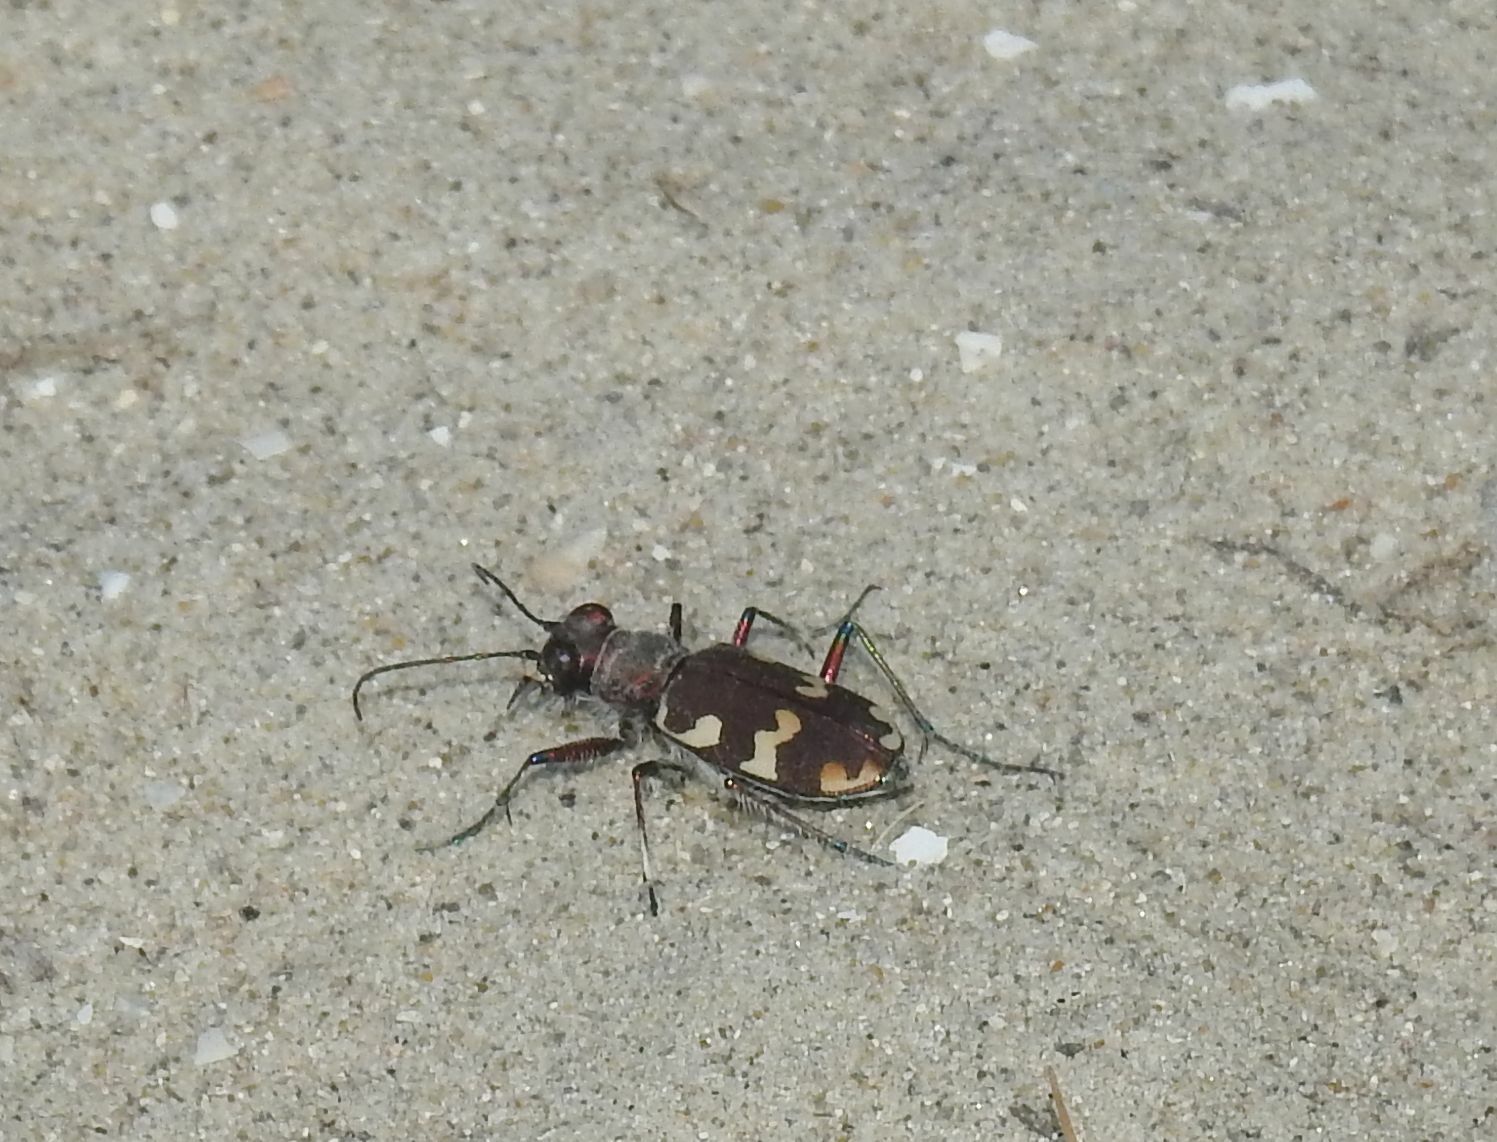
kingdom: Animalia
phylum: Arthropoda
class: Insecta
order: Coleoptera
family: Carabidae
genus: Cicindela
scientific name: Cicindela hybrida
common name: Northern dune tiger beetle
